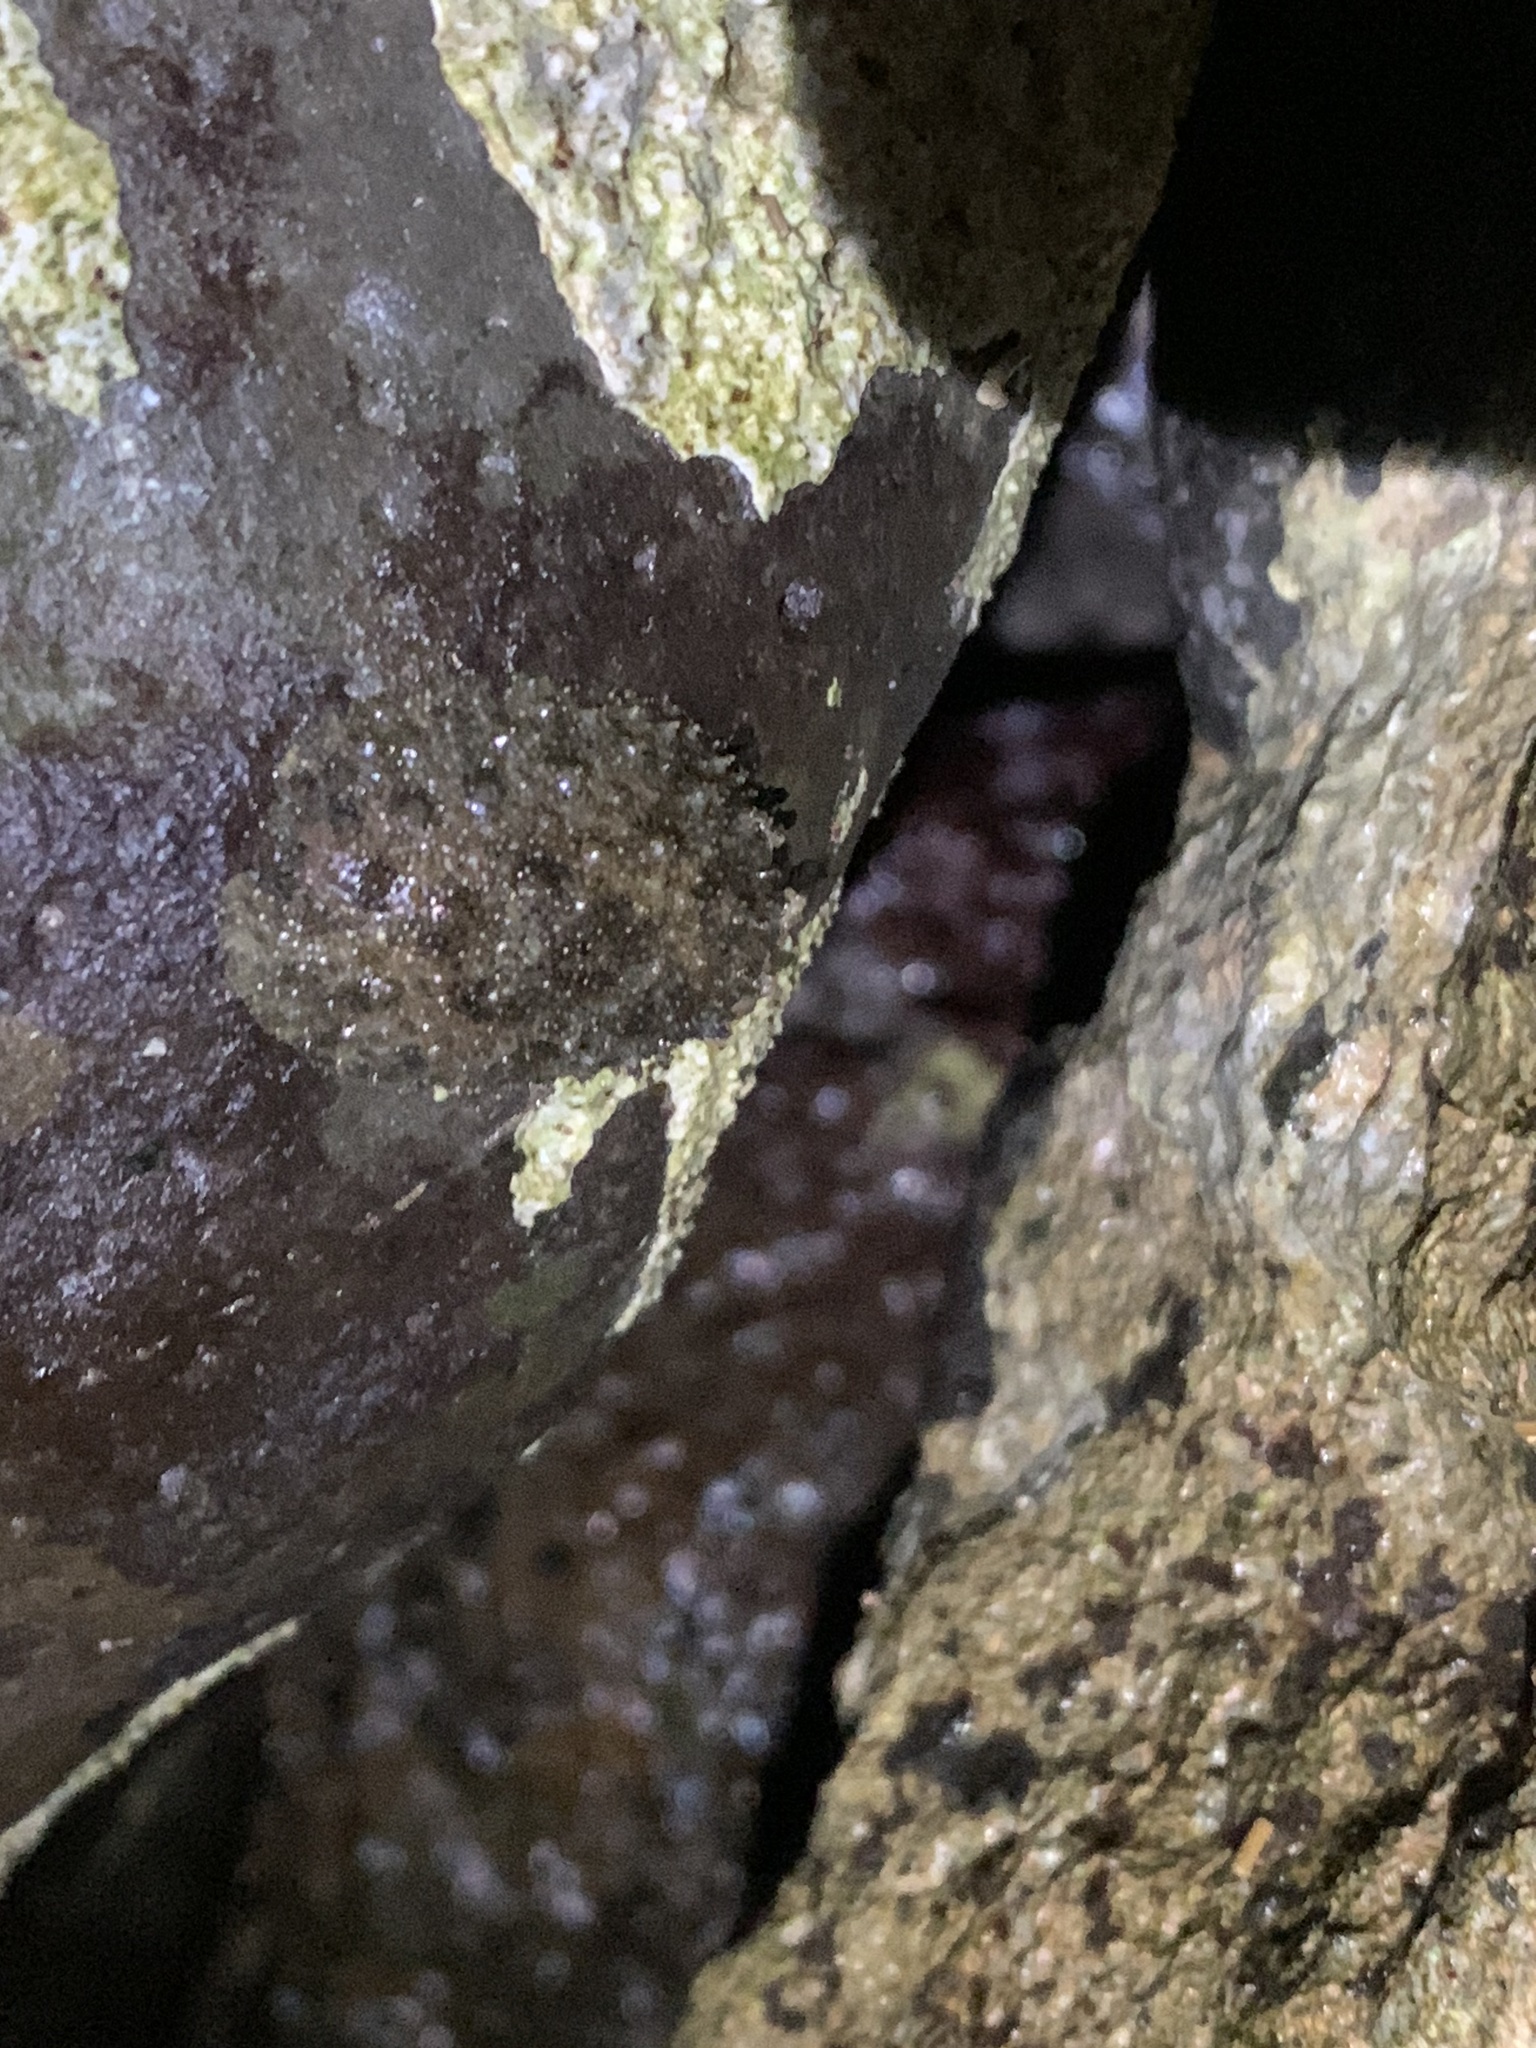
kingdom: Animalia
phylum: Mollusca
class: Gastropoda
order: Systellommatophora
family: Onchidiidae
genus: Peronia
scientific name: Peronia platei
